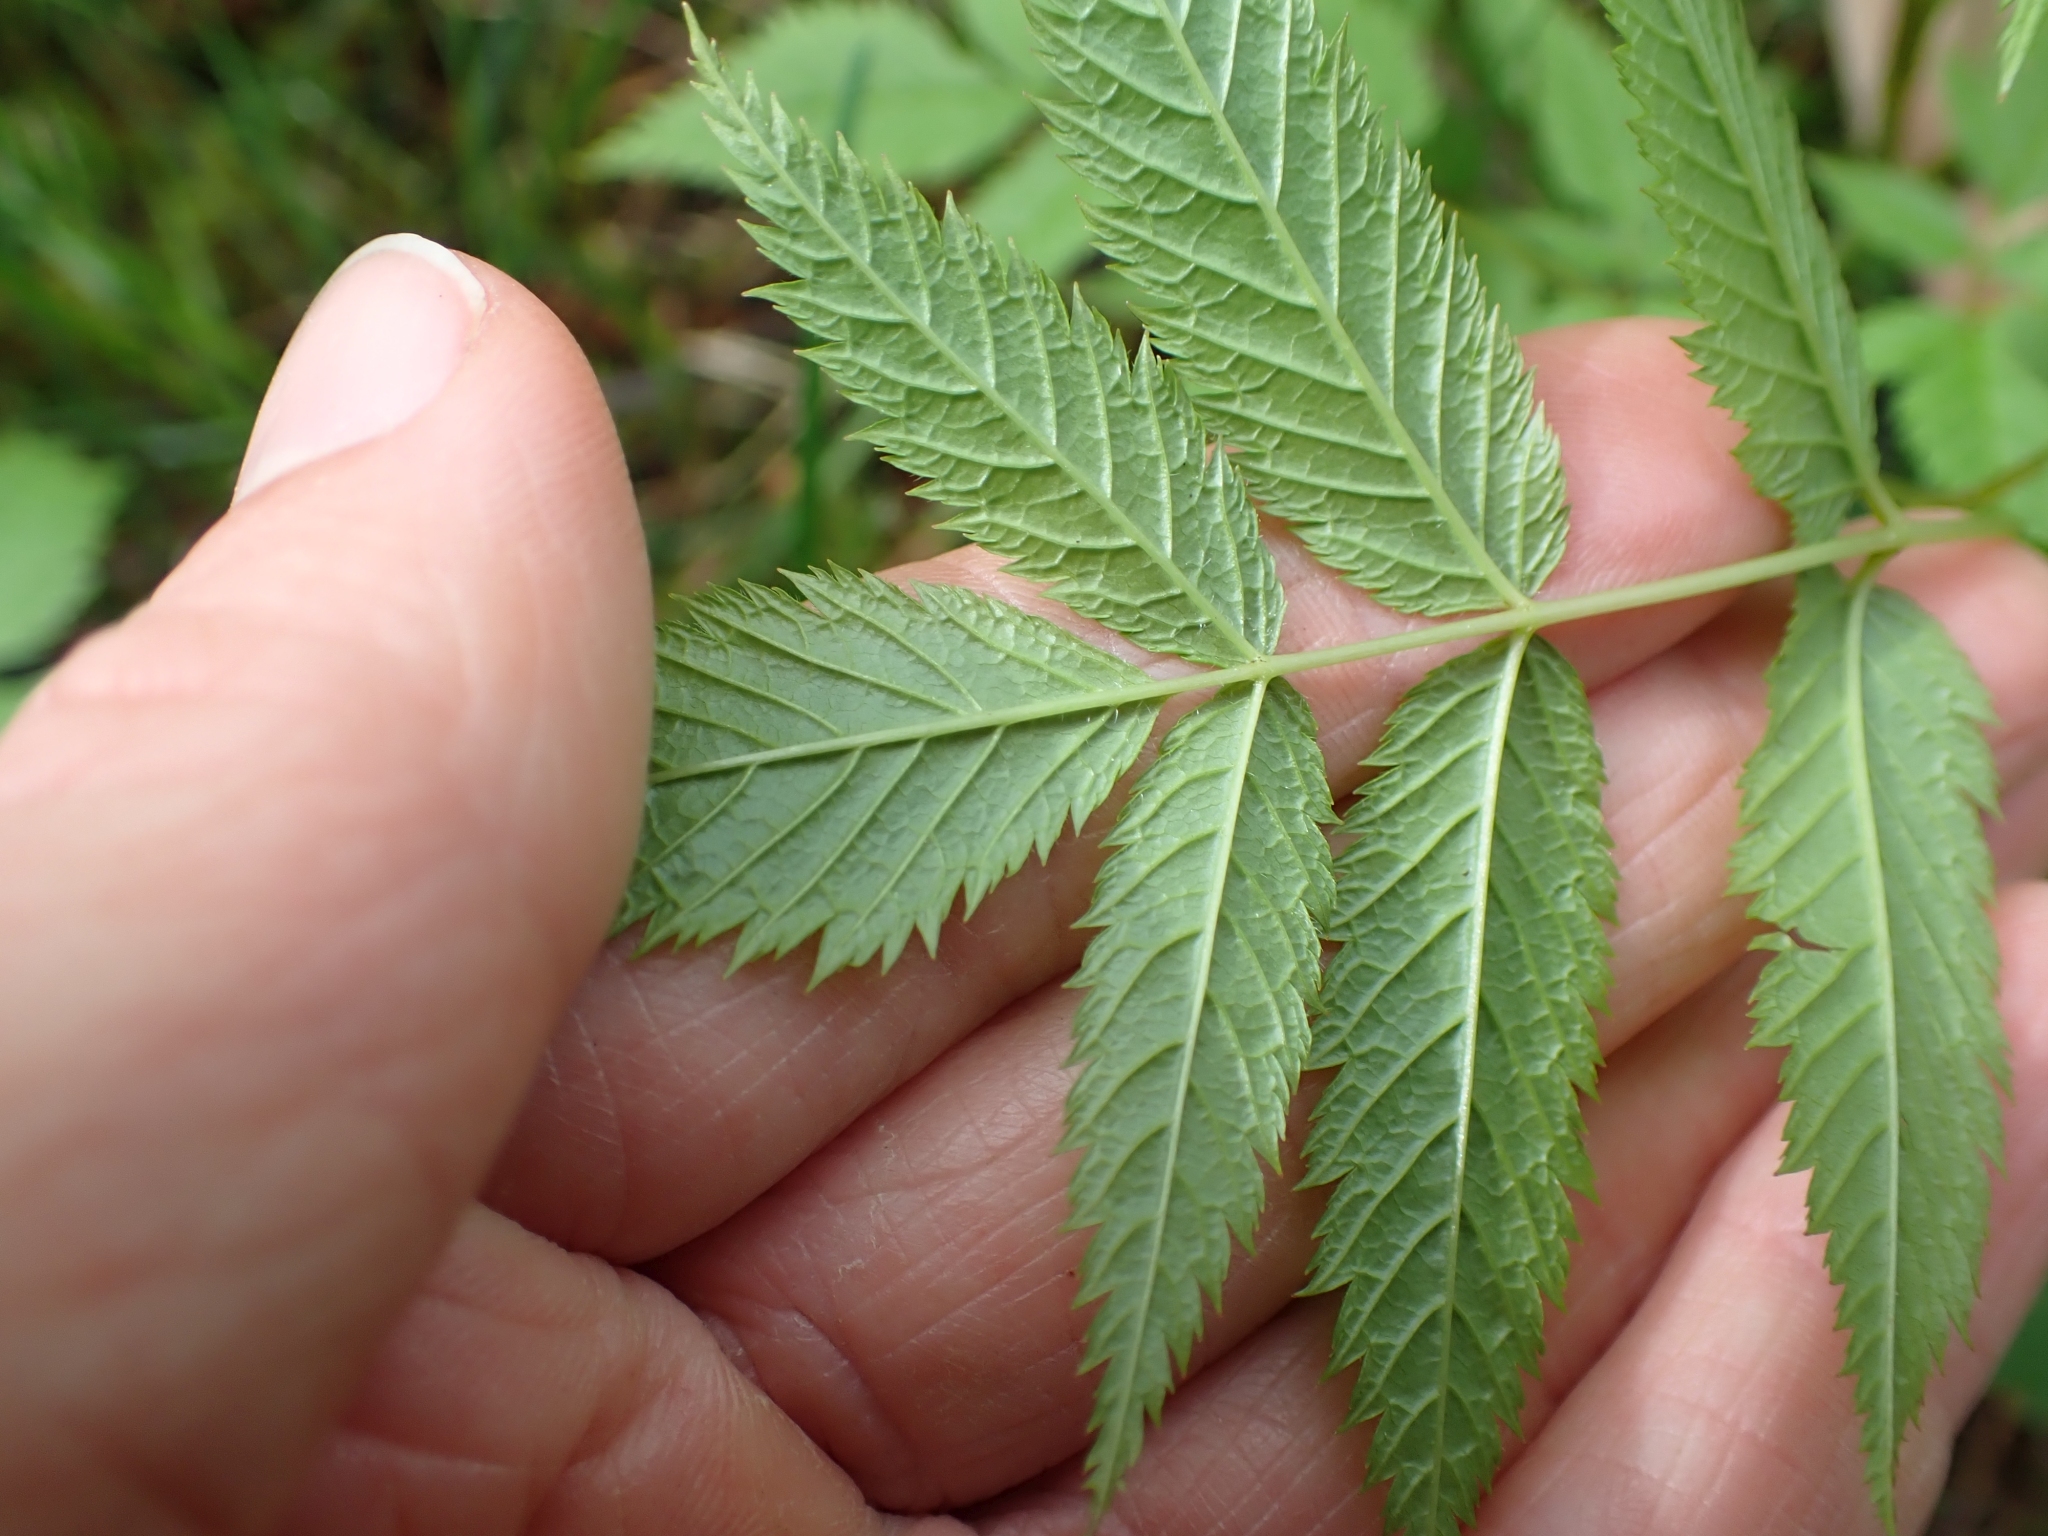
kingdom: Plantae
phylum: Tracheophyta
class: Magnoliopsida
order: Rosales
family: Rosaceae
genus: Aruncus
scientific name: Aruncus dioicus
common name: Buck's-beard
